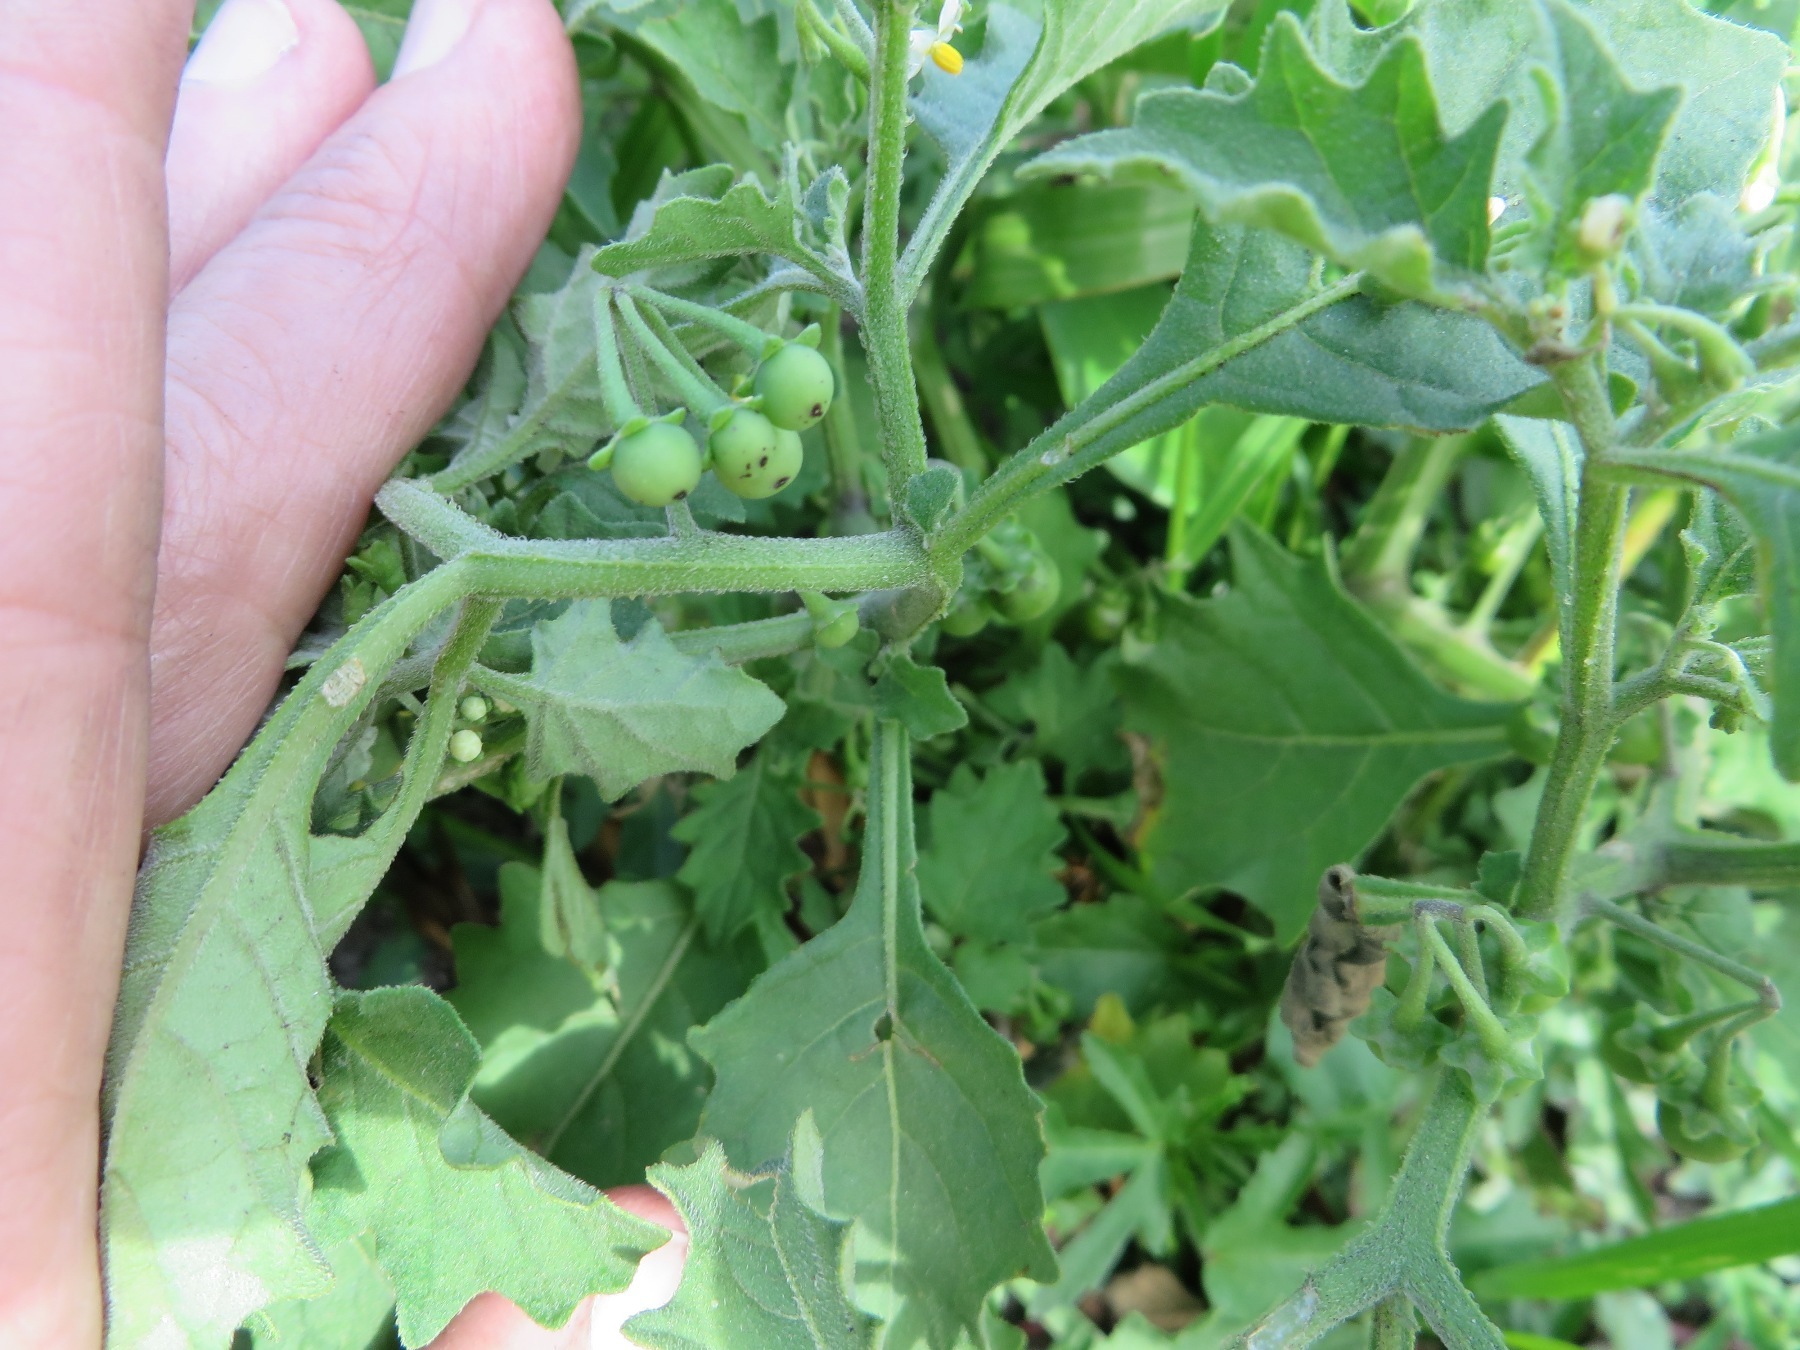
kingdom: Plantae
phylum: Tracheophyta
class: Magnoliopsida
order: Solanales
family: Solanaceae
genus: Solanum
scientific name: Solanum retroflexum
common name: Wonderberry
